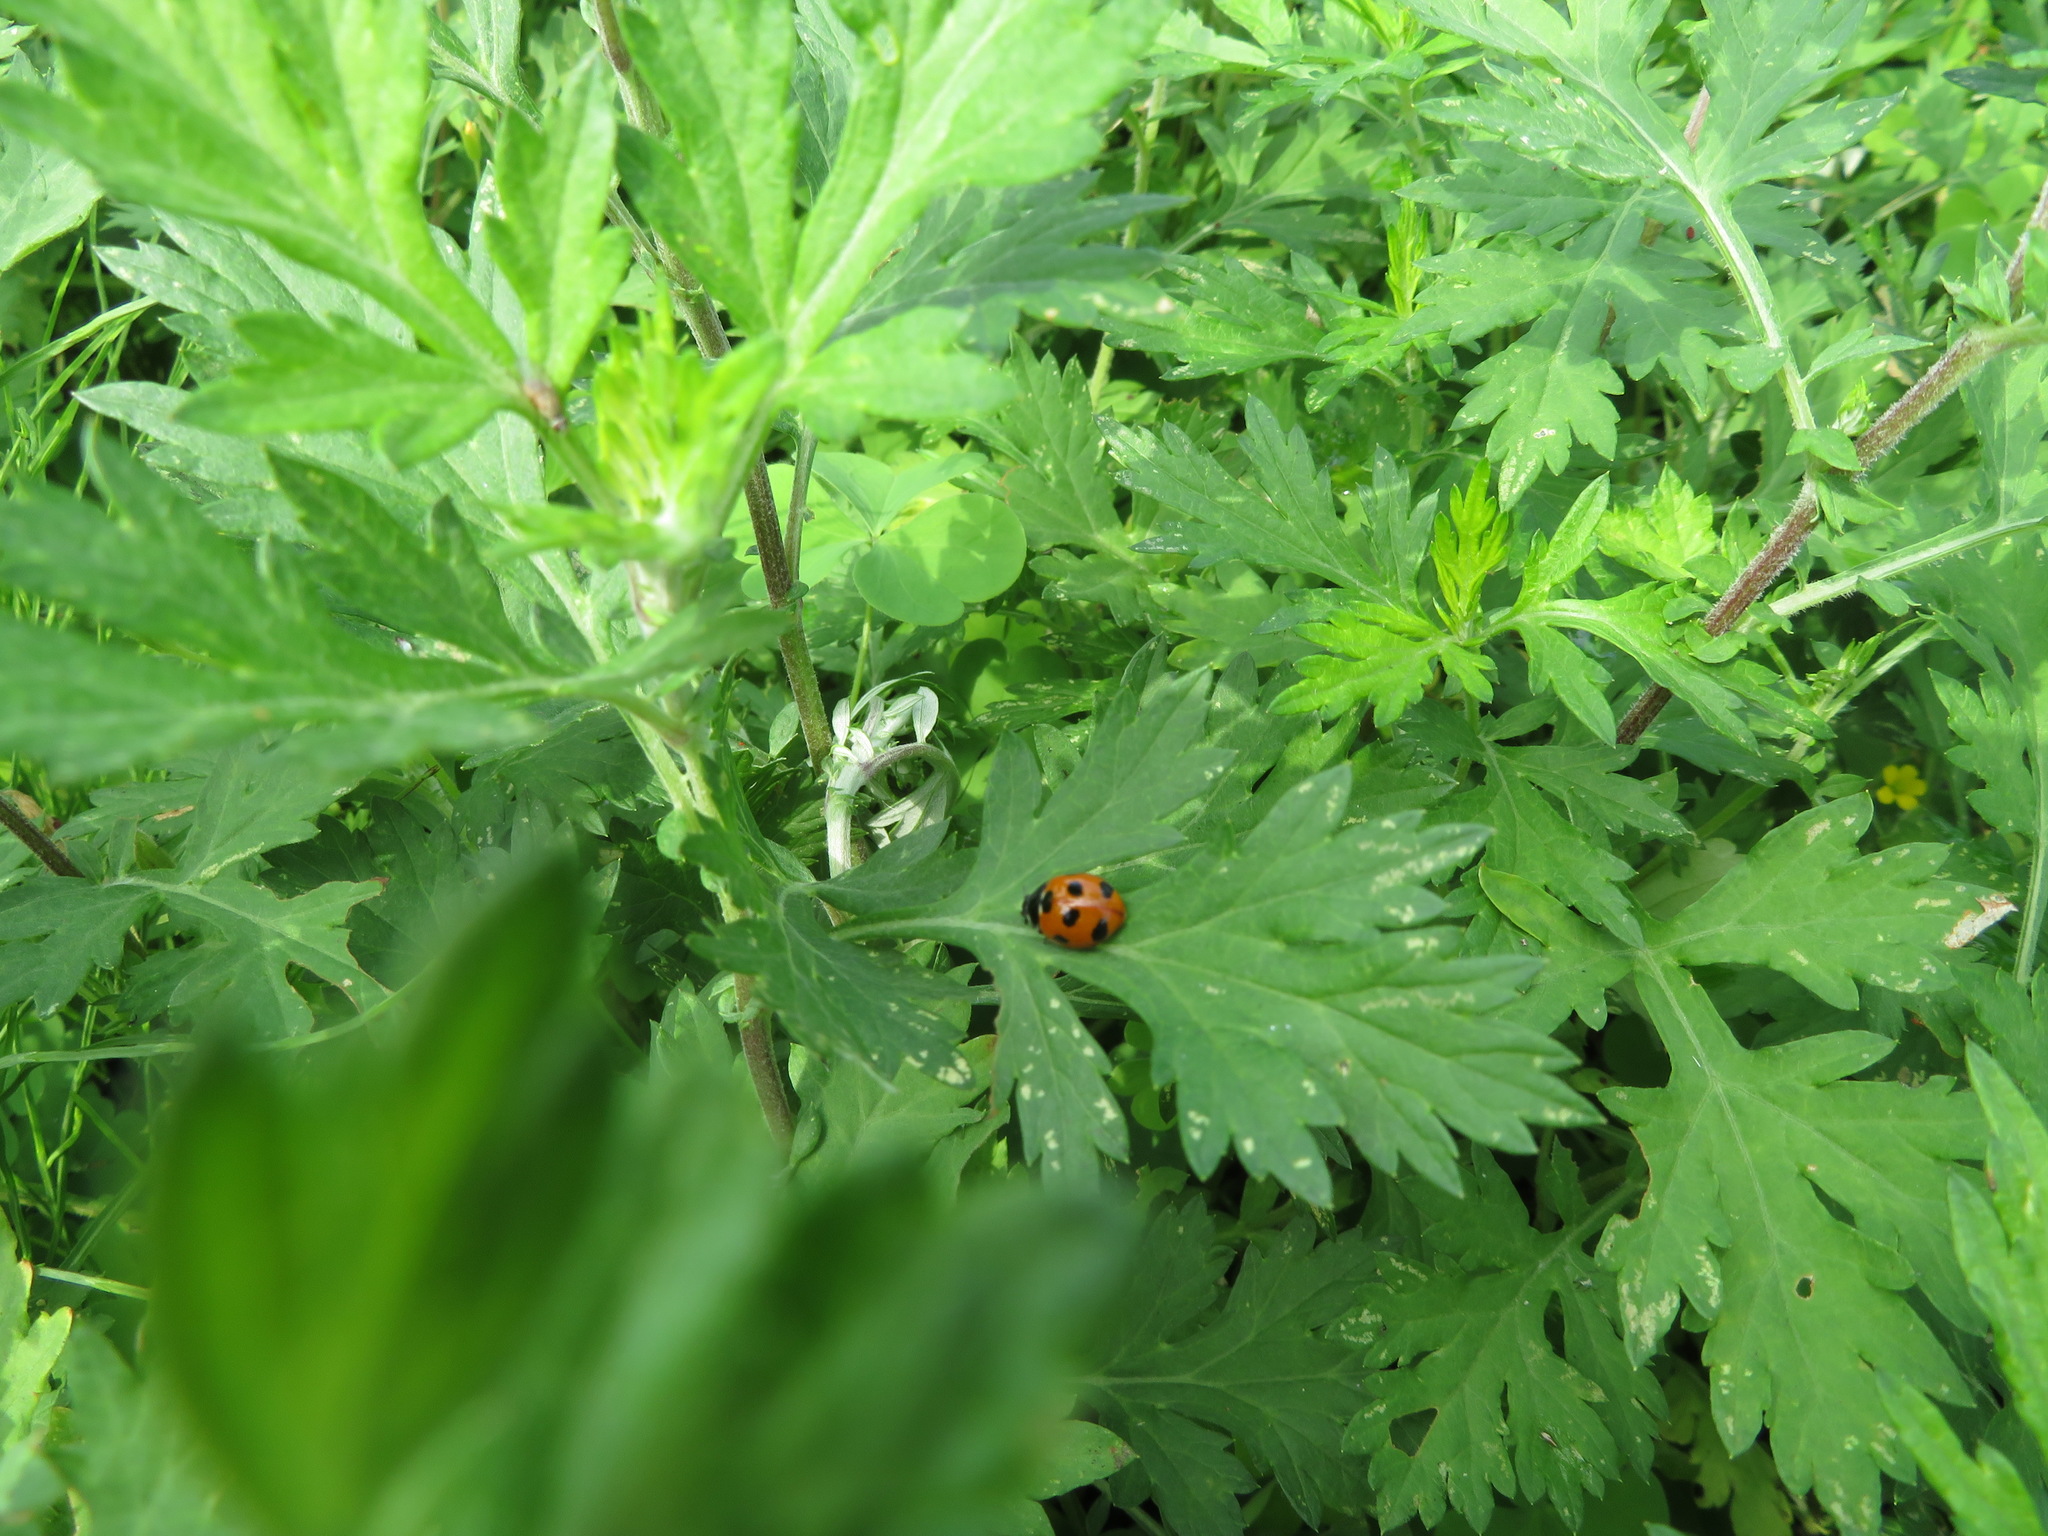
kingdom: Animalia
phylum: Arthropoda
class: Insecta
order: Coleoptera
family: Coccinellidae
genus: Coccinella
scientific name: Coccinella septempunctata
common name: Sevenspotted lady beetle
